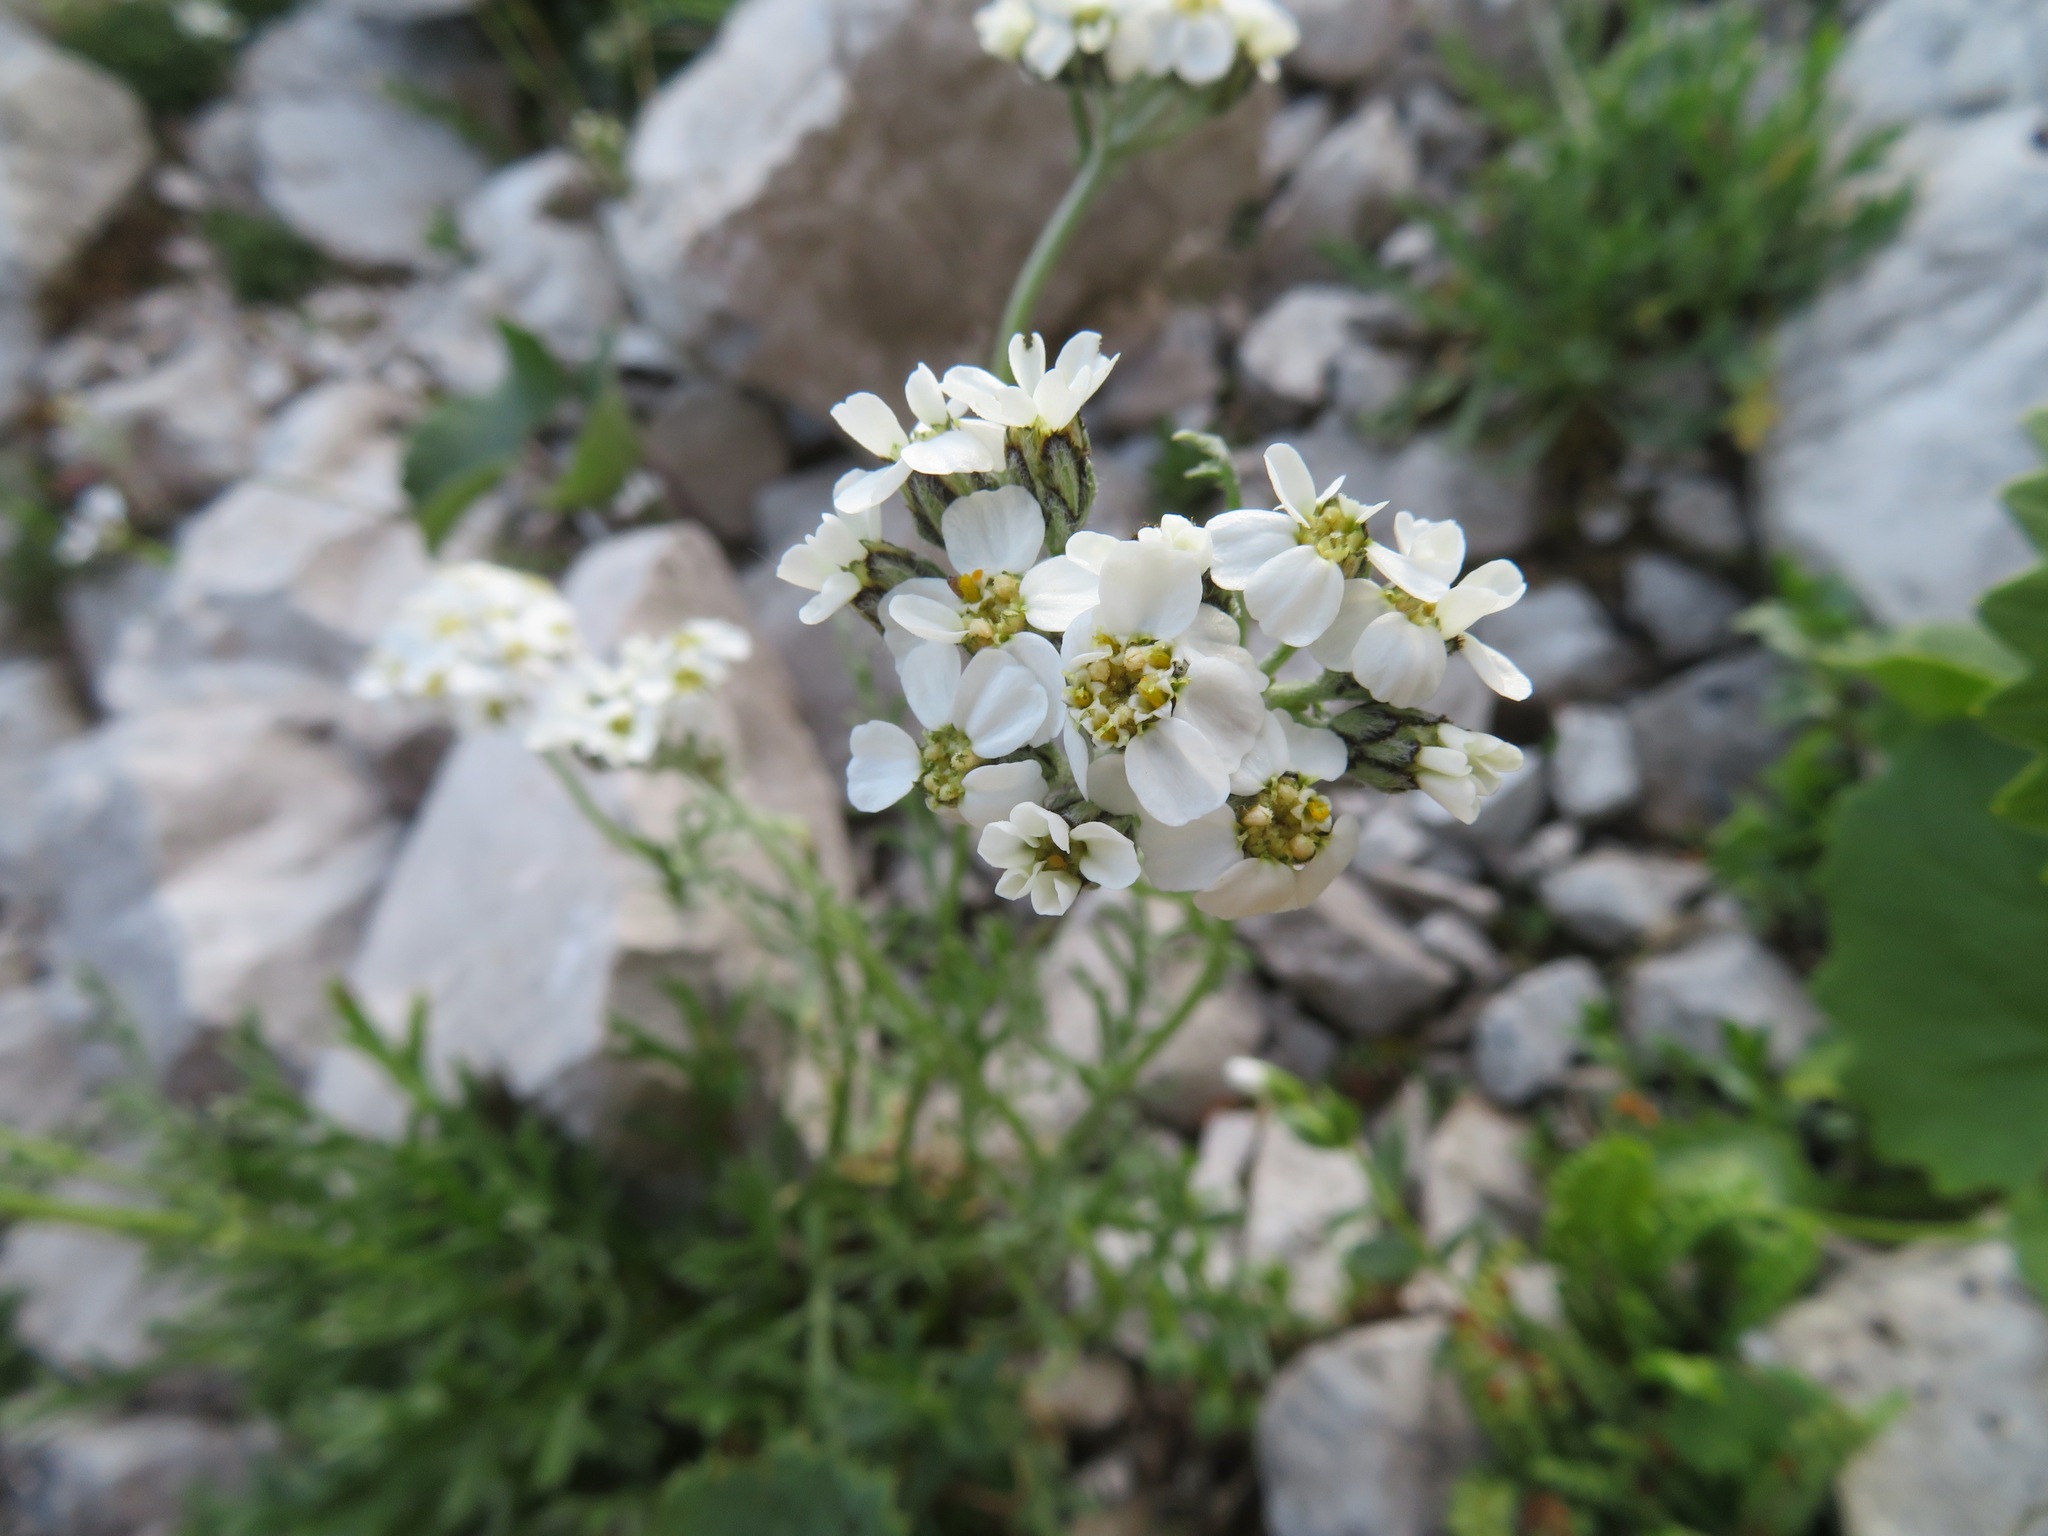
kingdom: Plantae
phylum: Tracheophyta
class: Magnoliopsida
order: Asterales
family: Asteraceae
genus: Achillea
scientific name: Achillea clavennae
